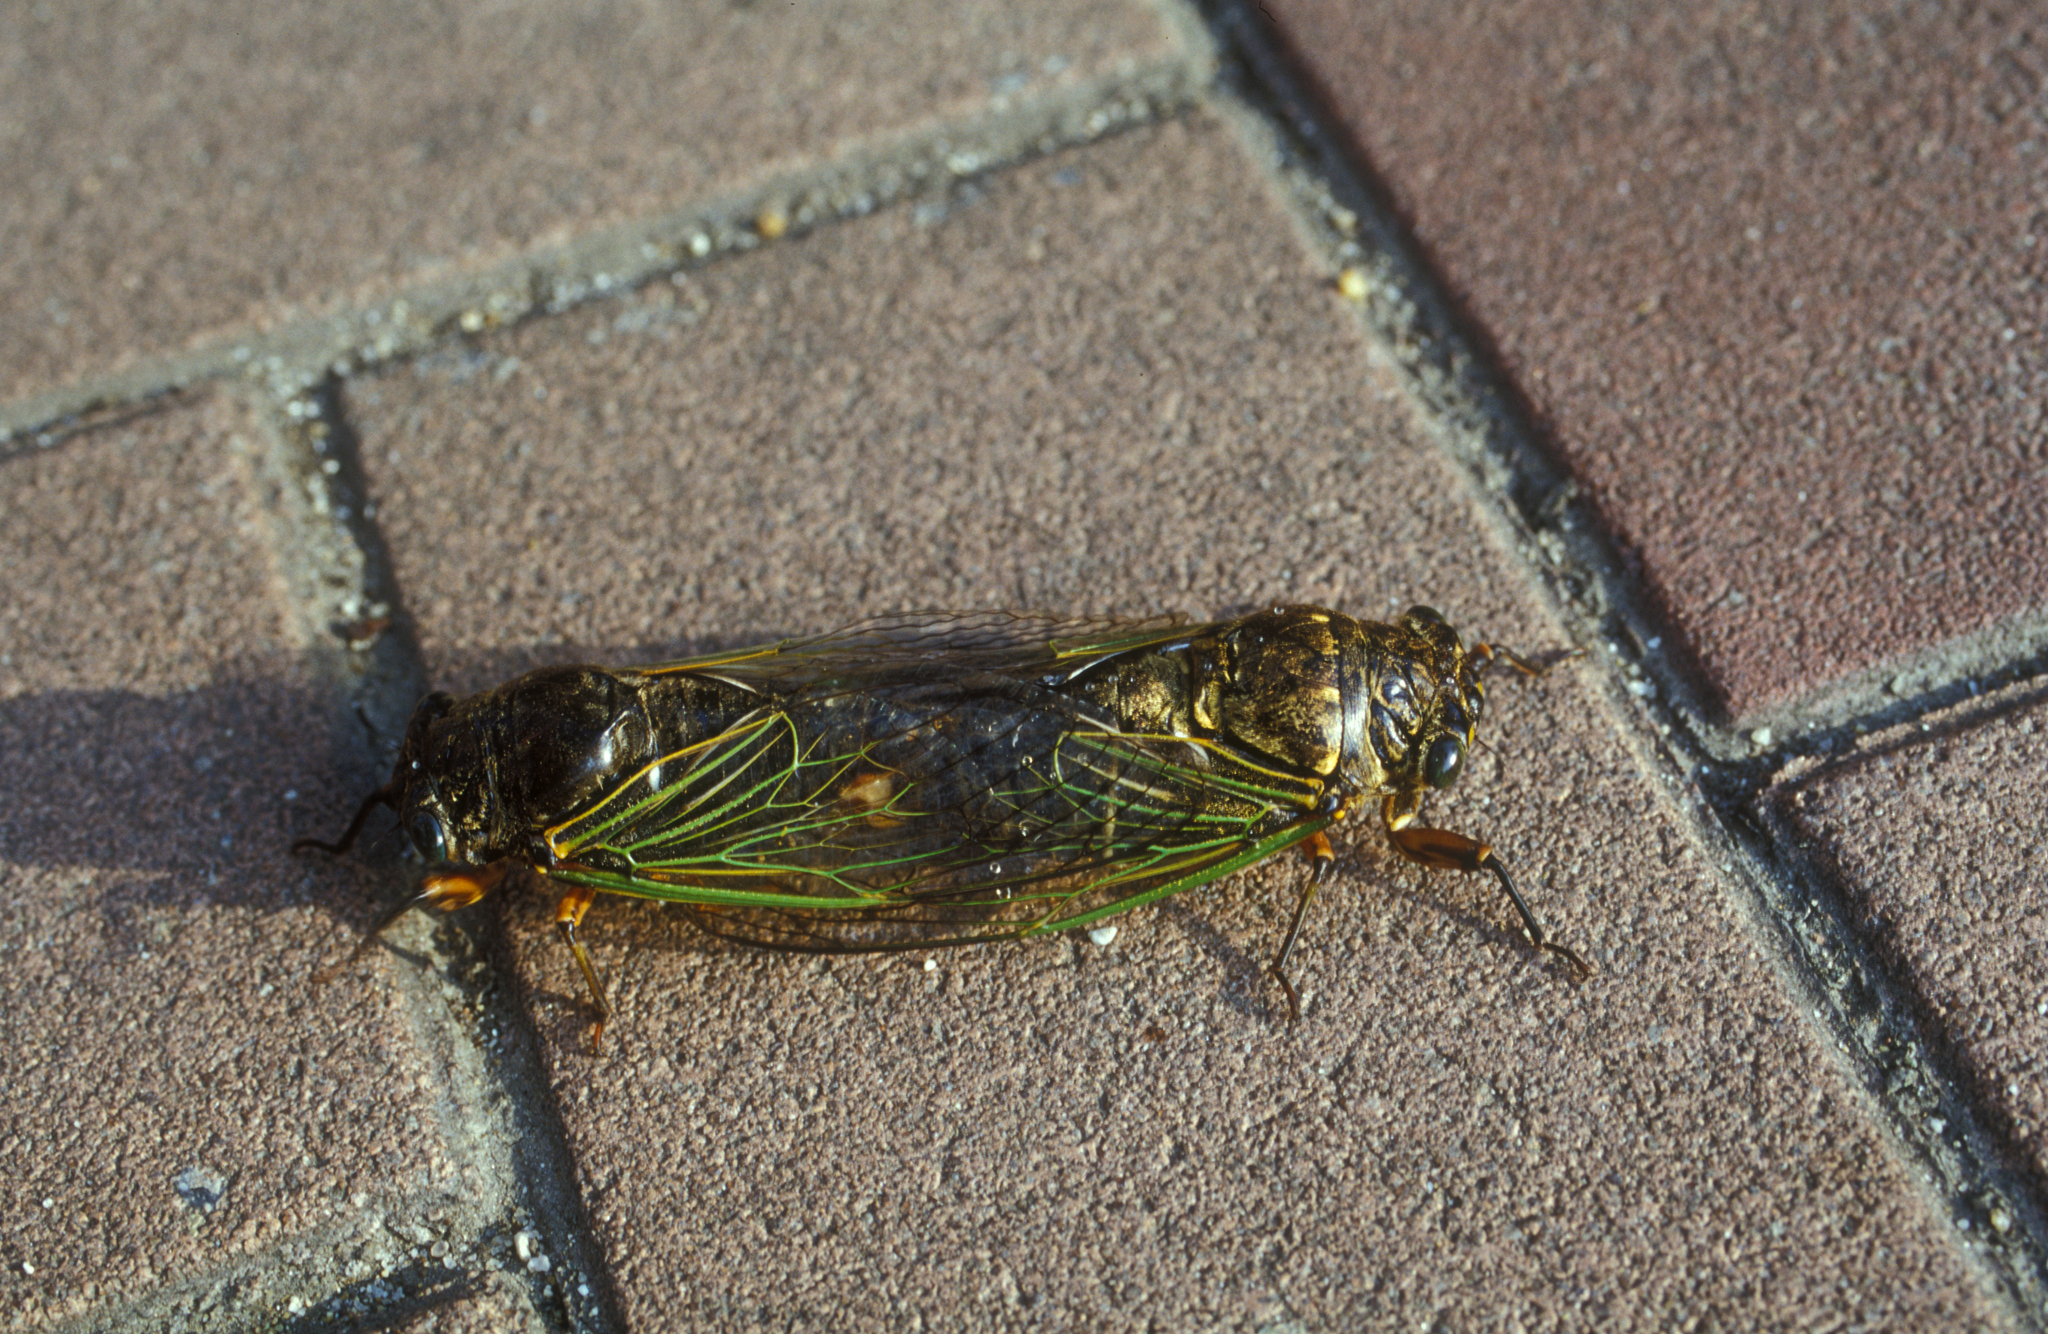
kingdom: Animalia
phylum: Arthropoda
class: Insecta
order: Hemiptera
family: Cicadidae
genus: Cryptotympana
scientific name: Cryptotympana facialis
